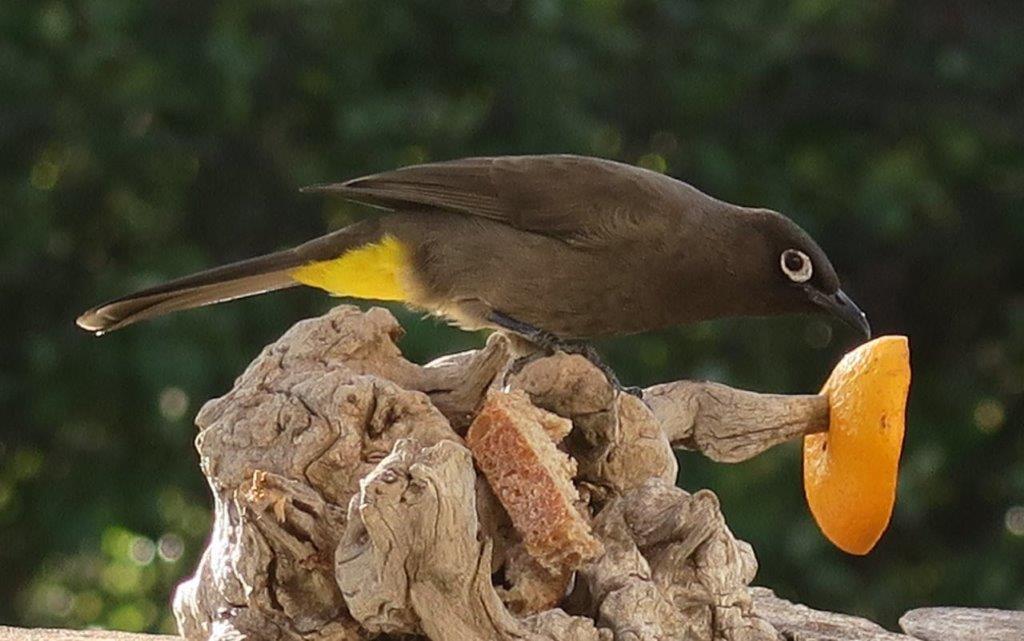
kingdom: Animalia
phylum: Chordata
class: Aves
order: Passeriformes
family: Pycnonotidae
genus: Pycnonotus
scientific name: Pycnonotus capensis
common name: Cape bulbul
